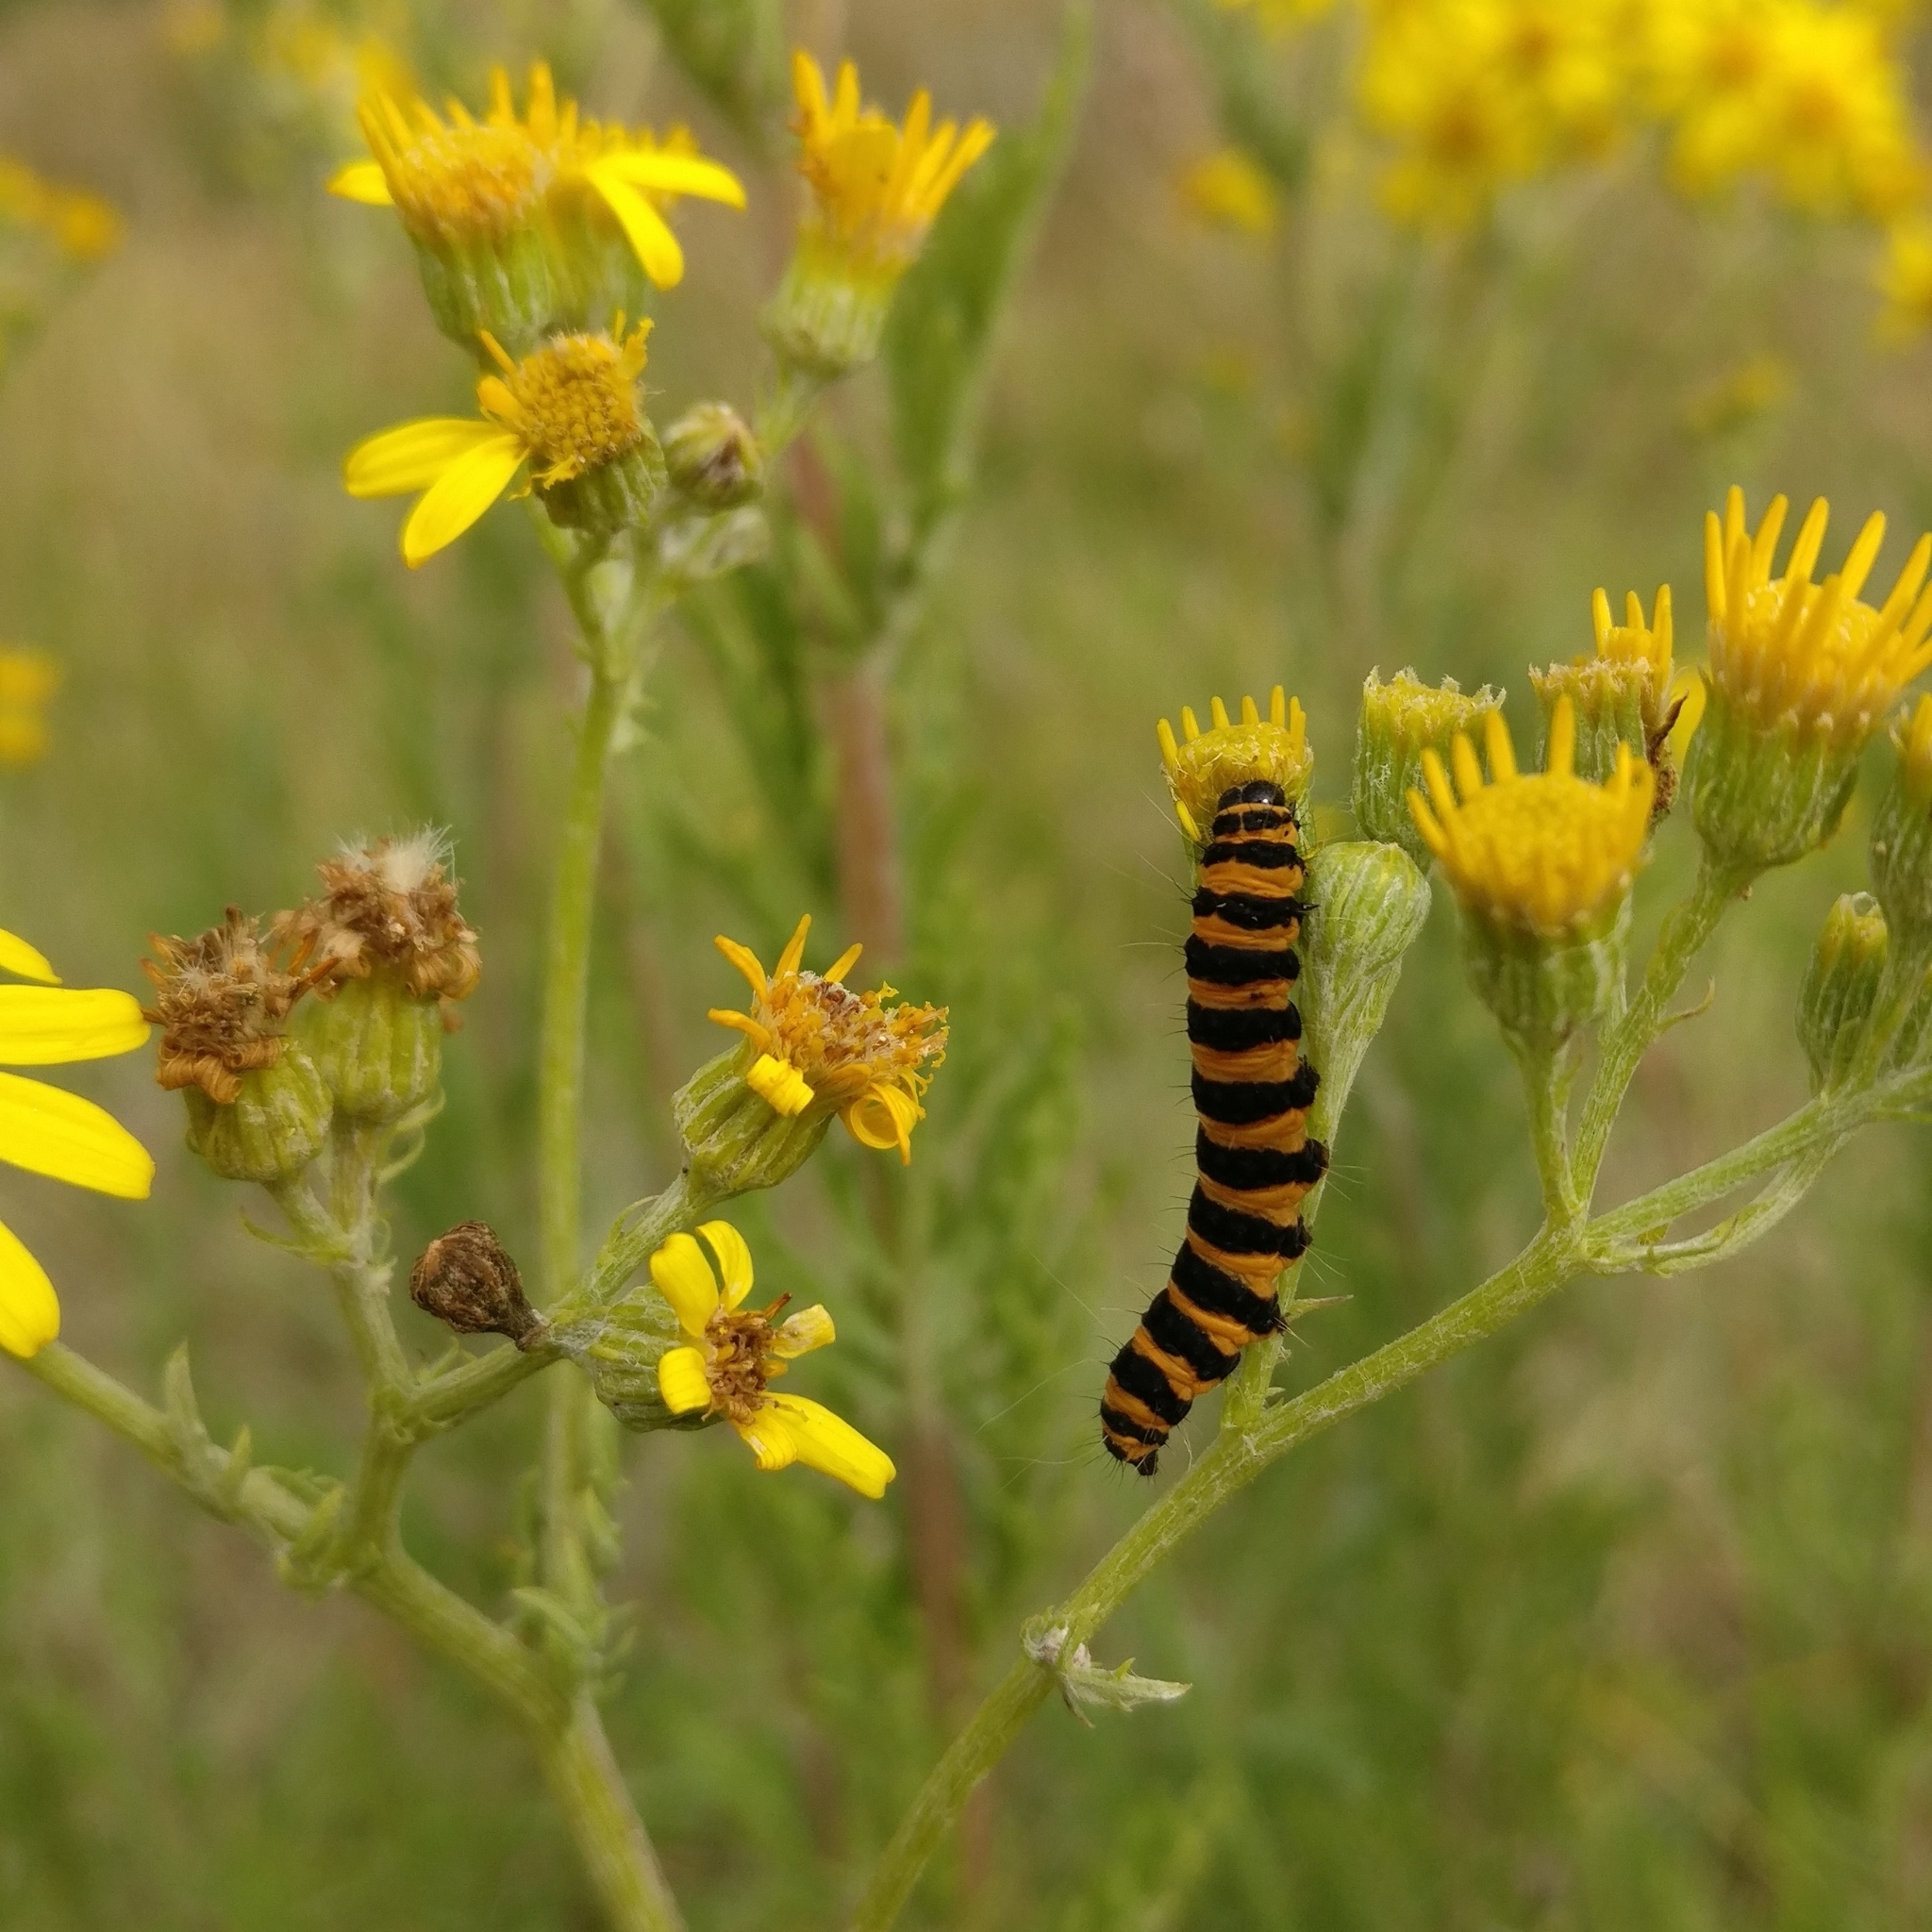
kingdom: Animalia
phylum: Arthropoda
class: Insecta
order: Lepidoptera
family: Erebidae
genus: Tyria
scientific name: Tyria jacobaeae
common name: Cinnabar
